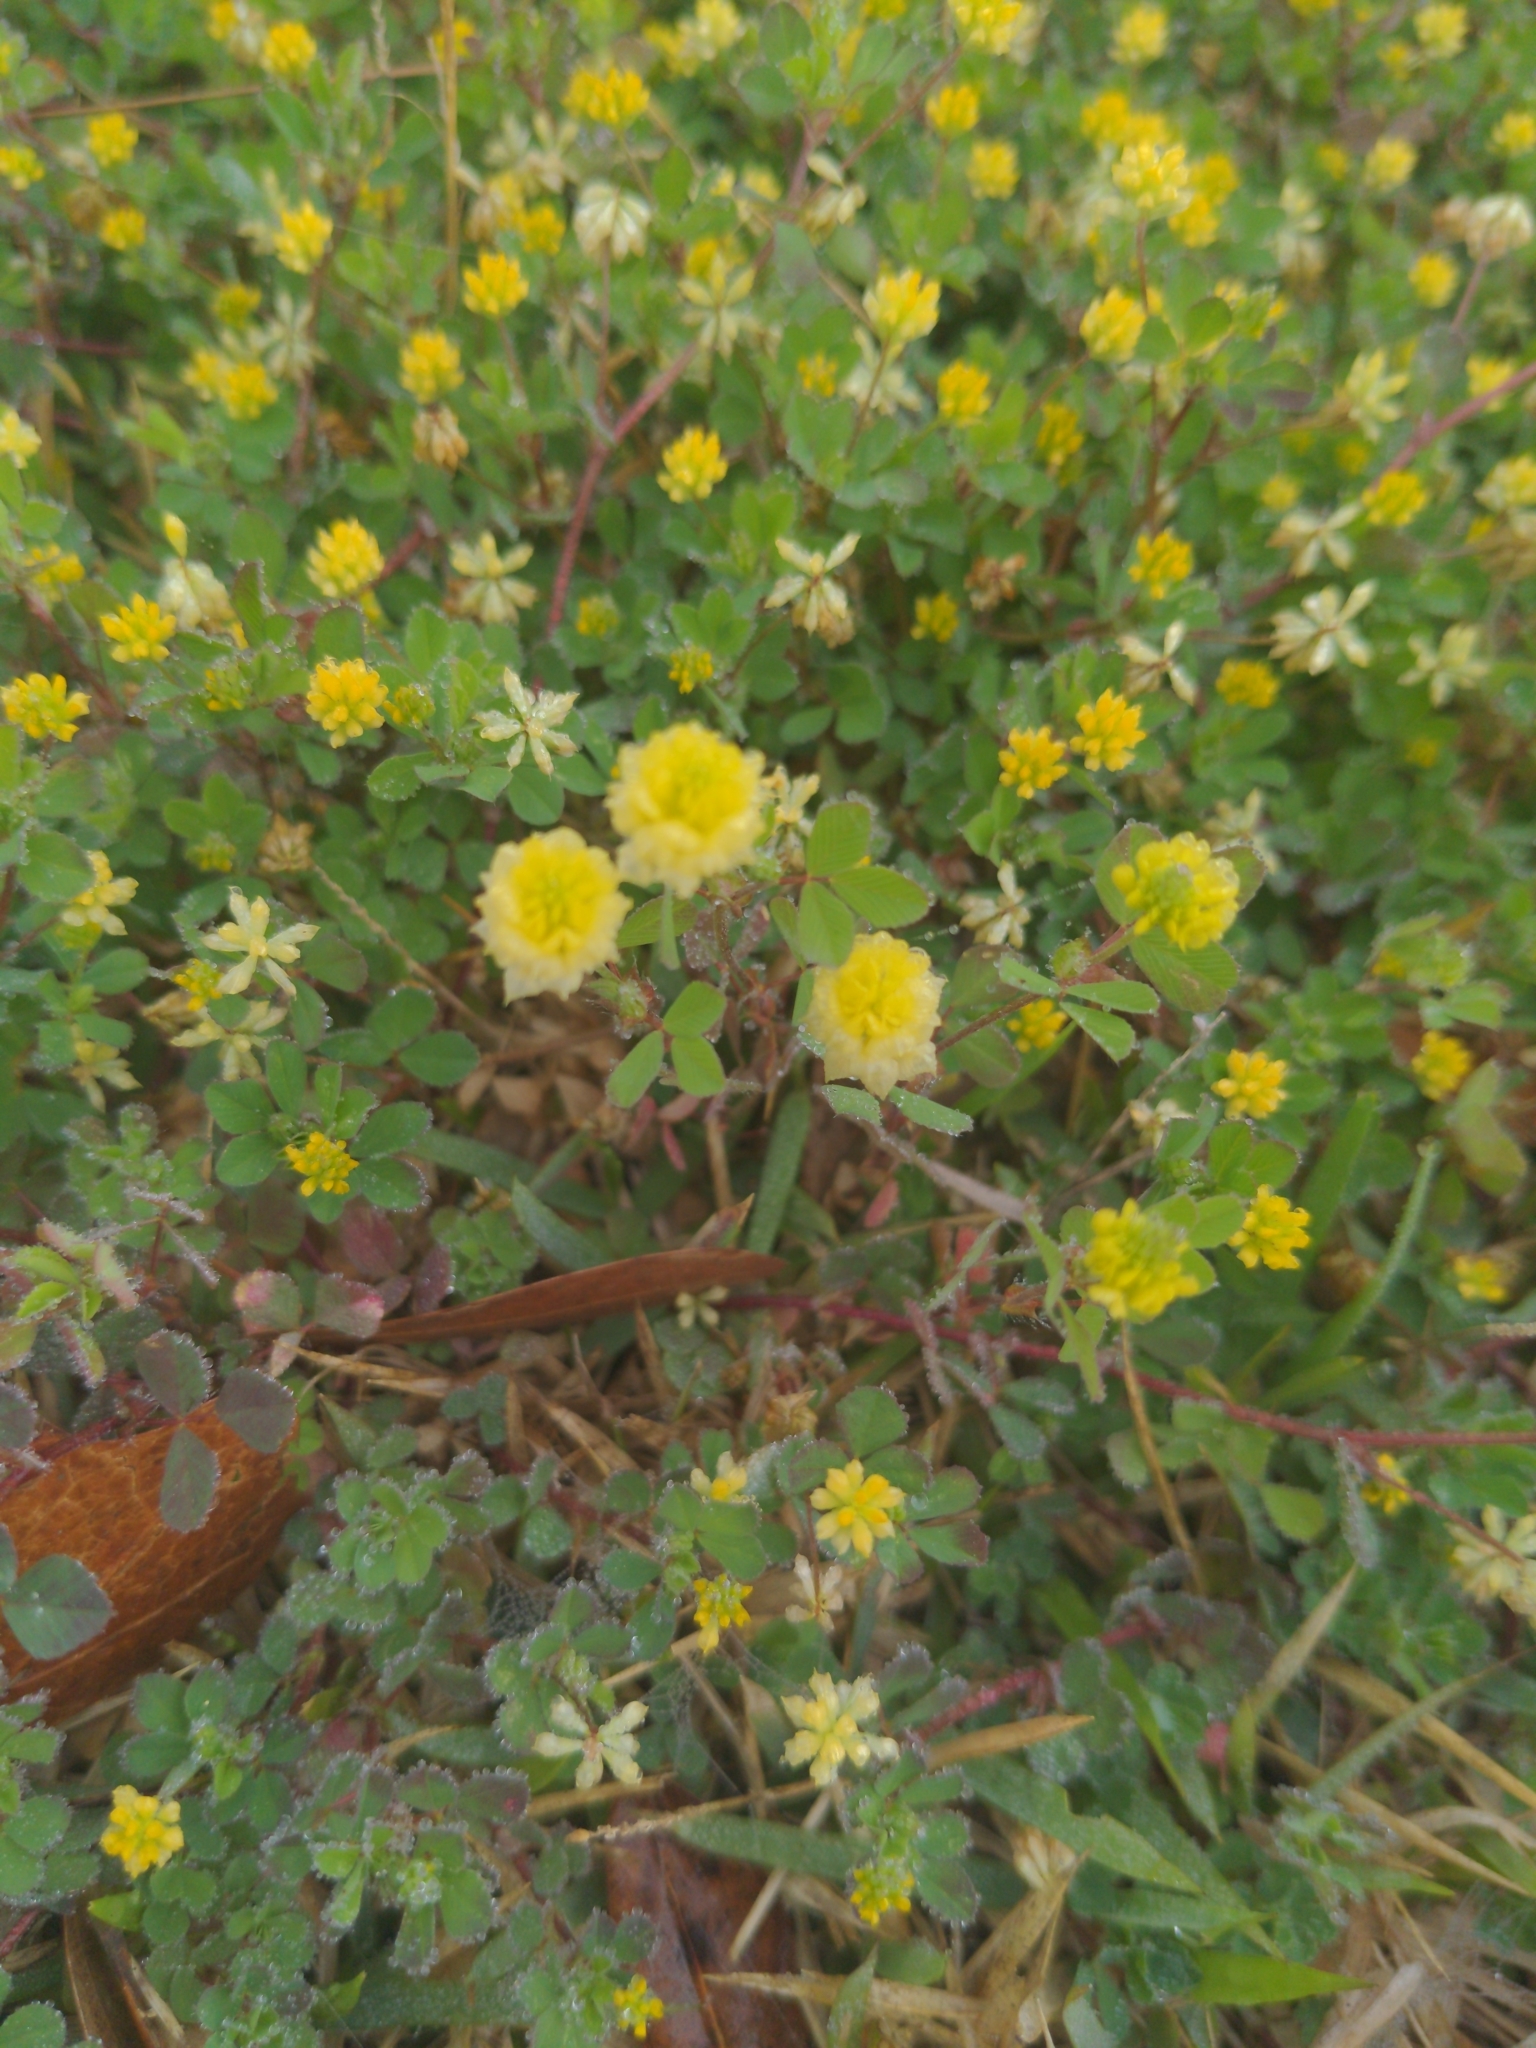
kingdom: Plantae
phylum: Tracheophyta
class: Magnoliopsida
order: Fabales
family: Fabaceae
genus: Trifolium
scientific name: Trifolium campestre
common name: Field clover
